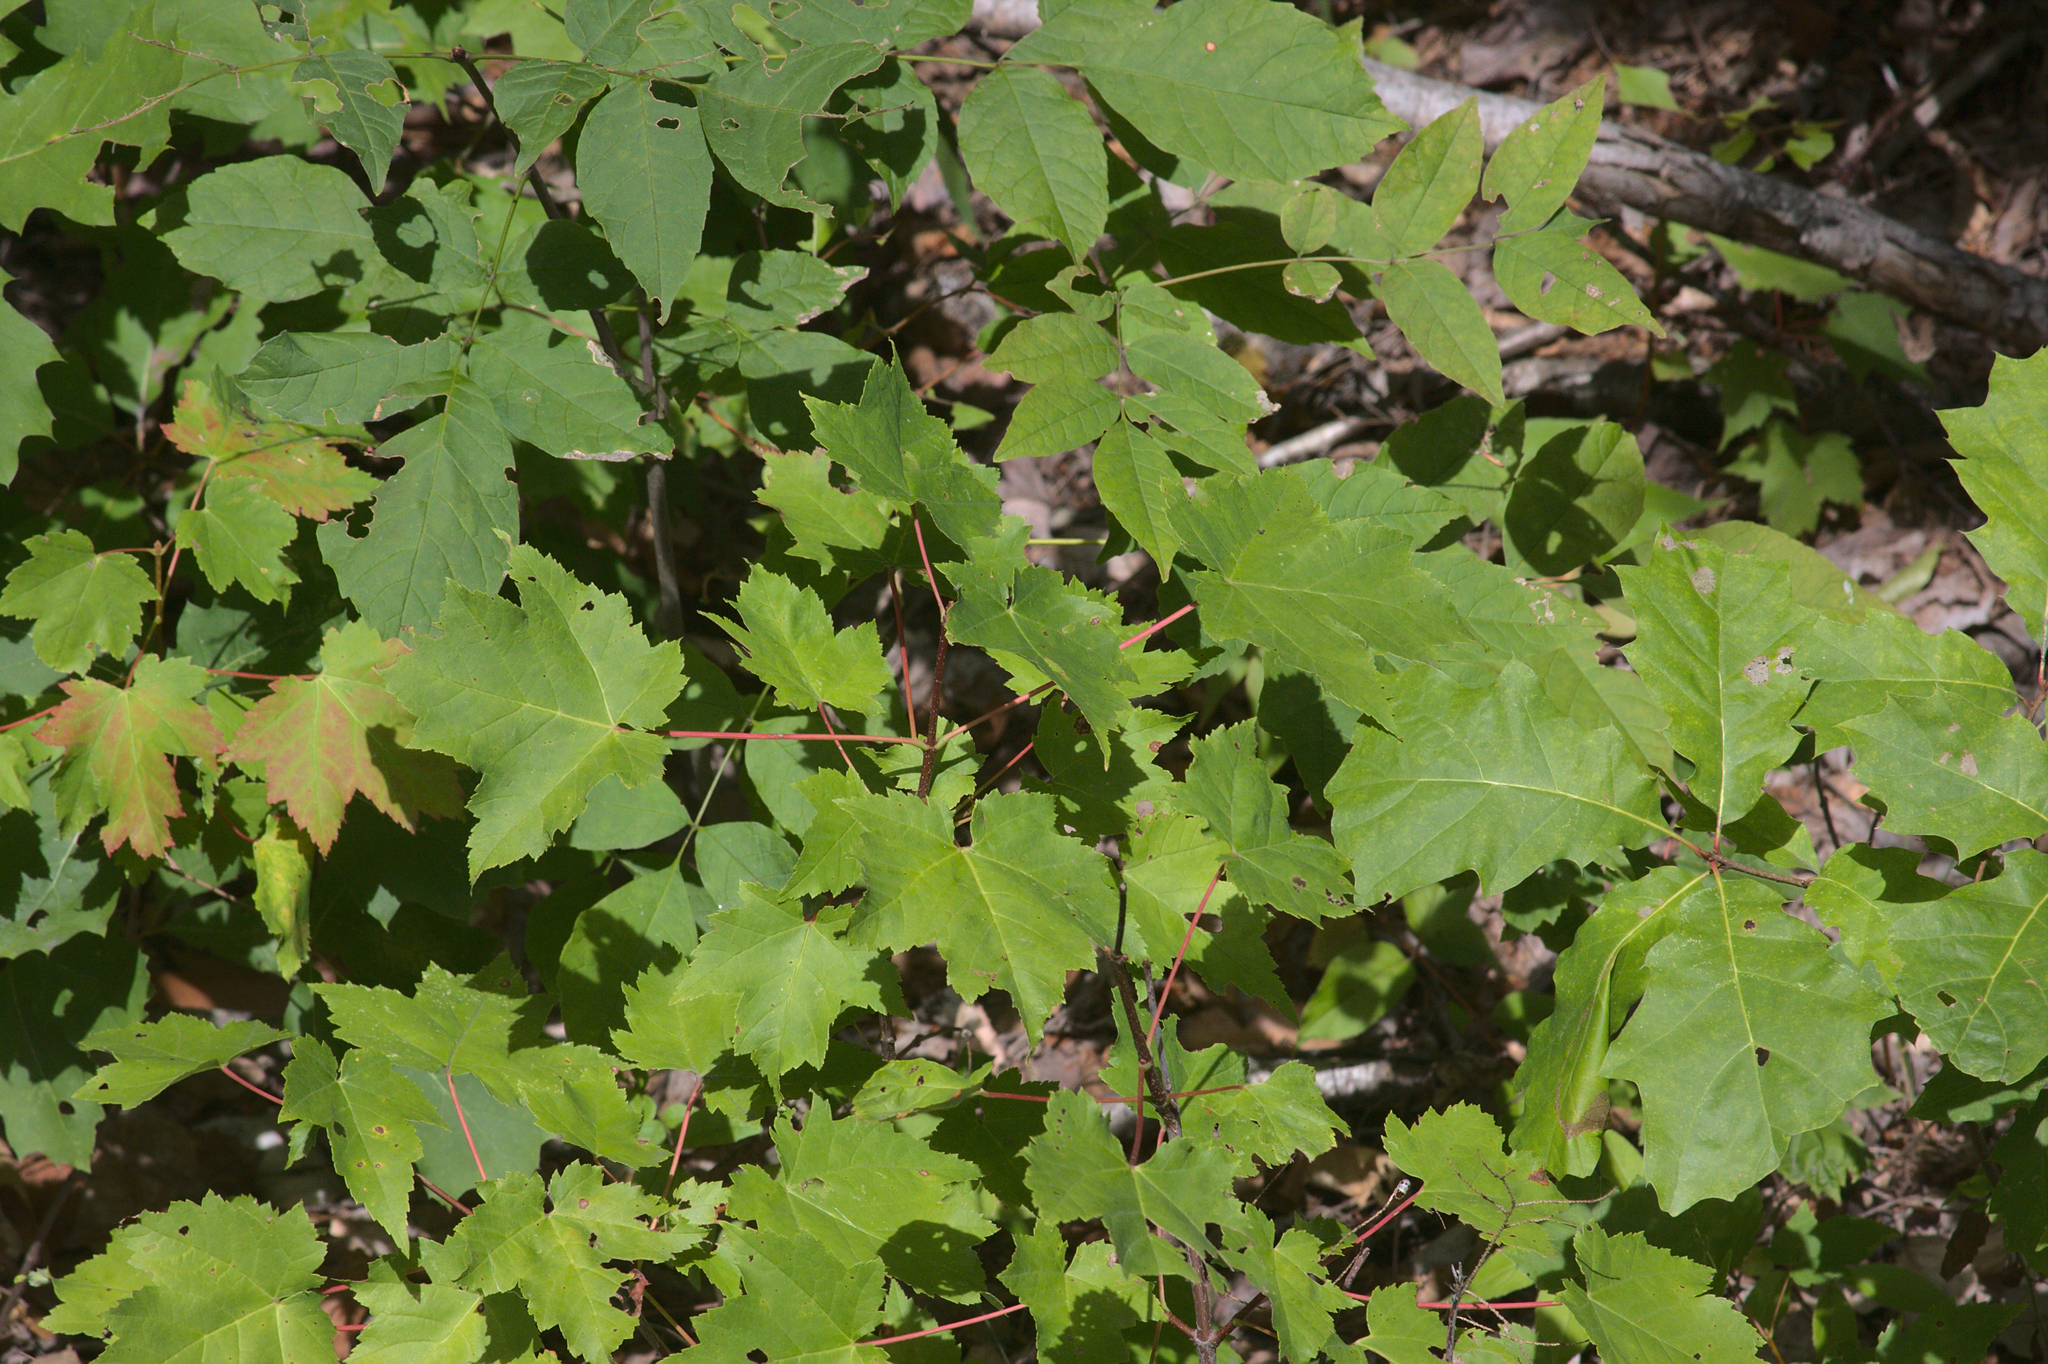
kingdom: Plantae
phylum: Tracheophyta
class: Magnoliopsida
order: Sapindales
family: Sapindaceae
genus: Acer
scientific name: Acer rubrum
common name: Red maple
